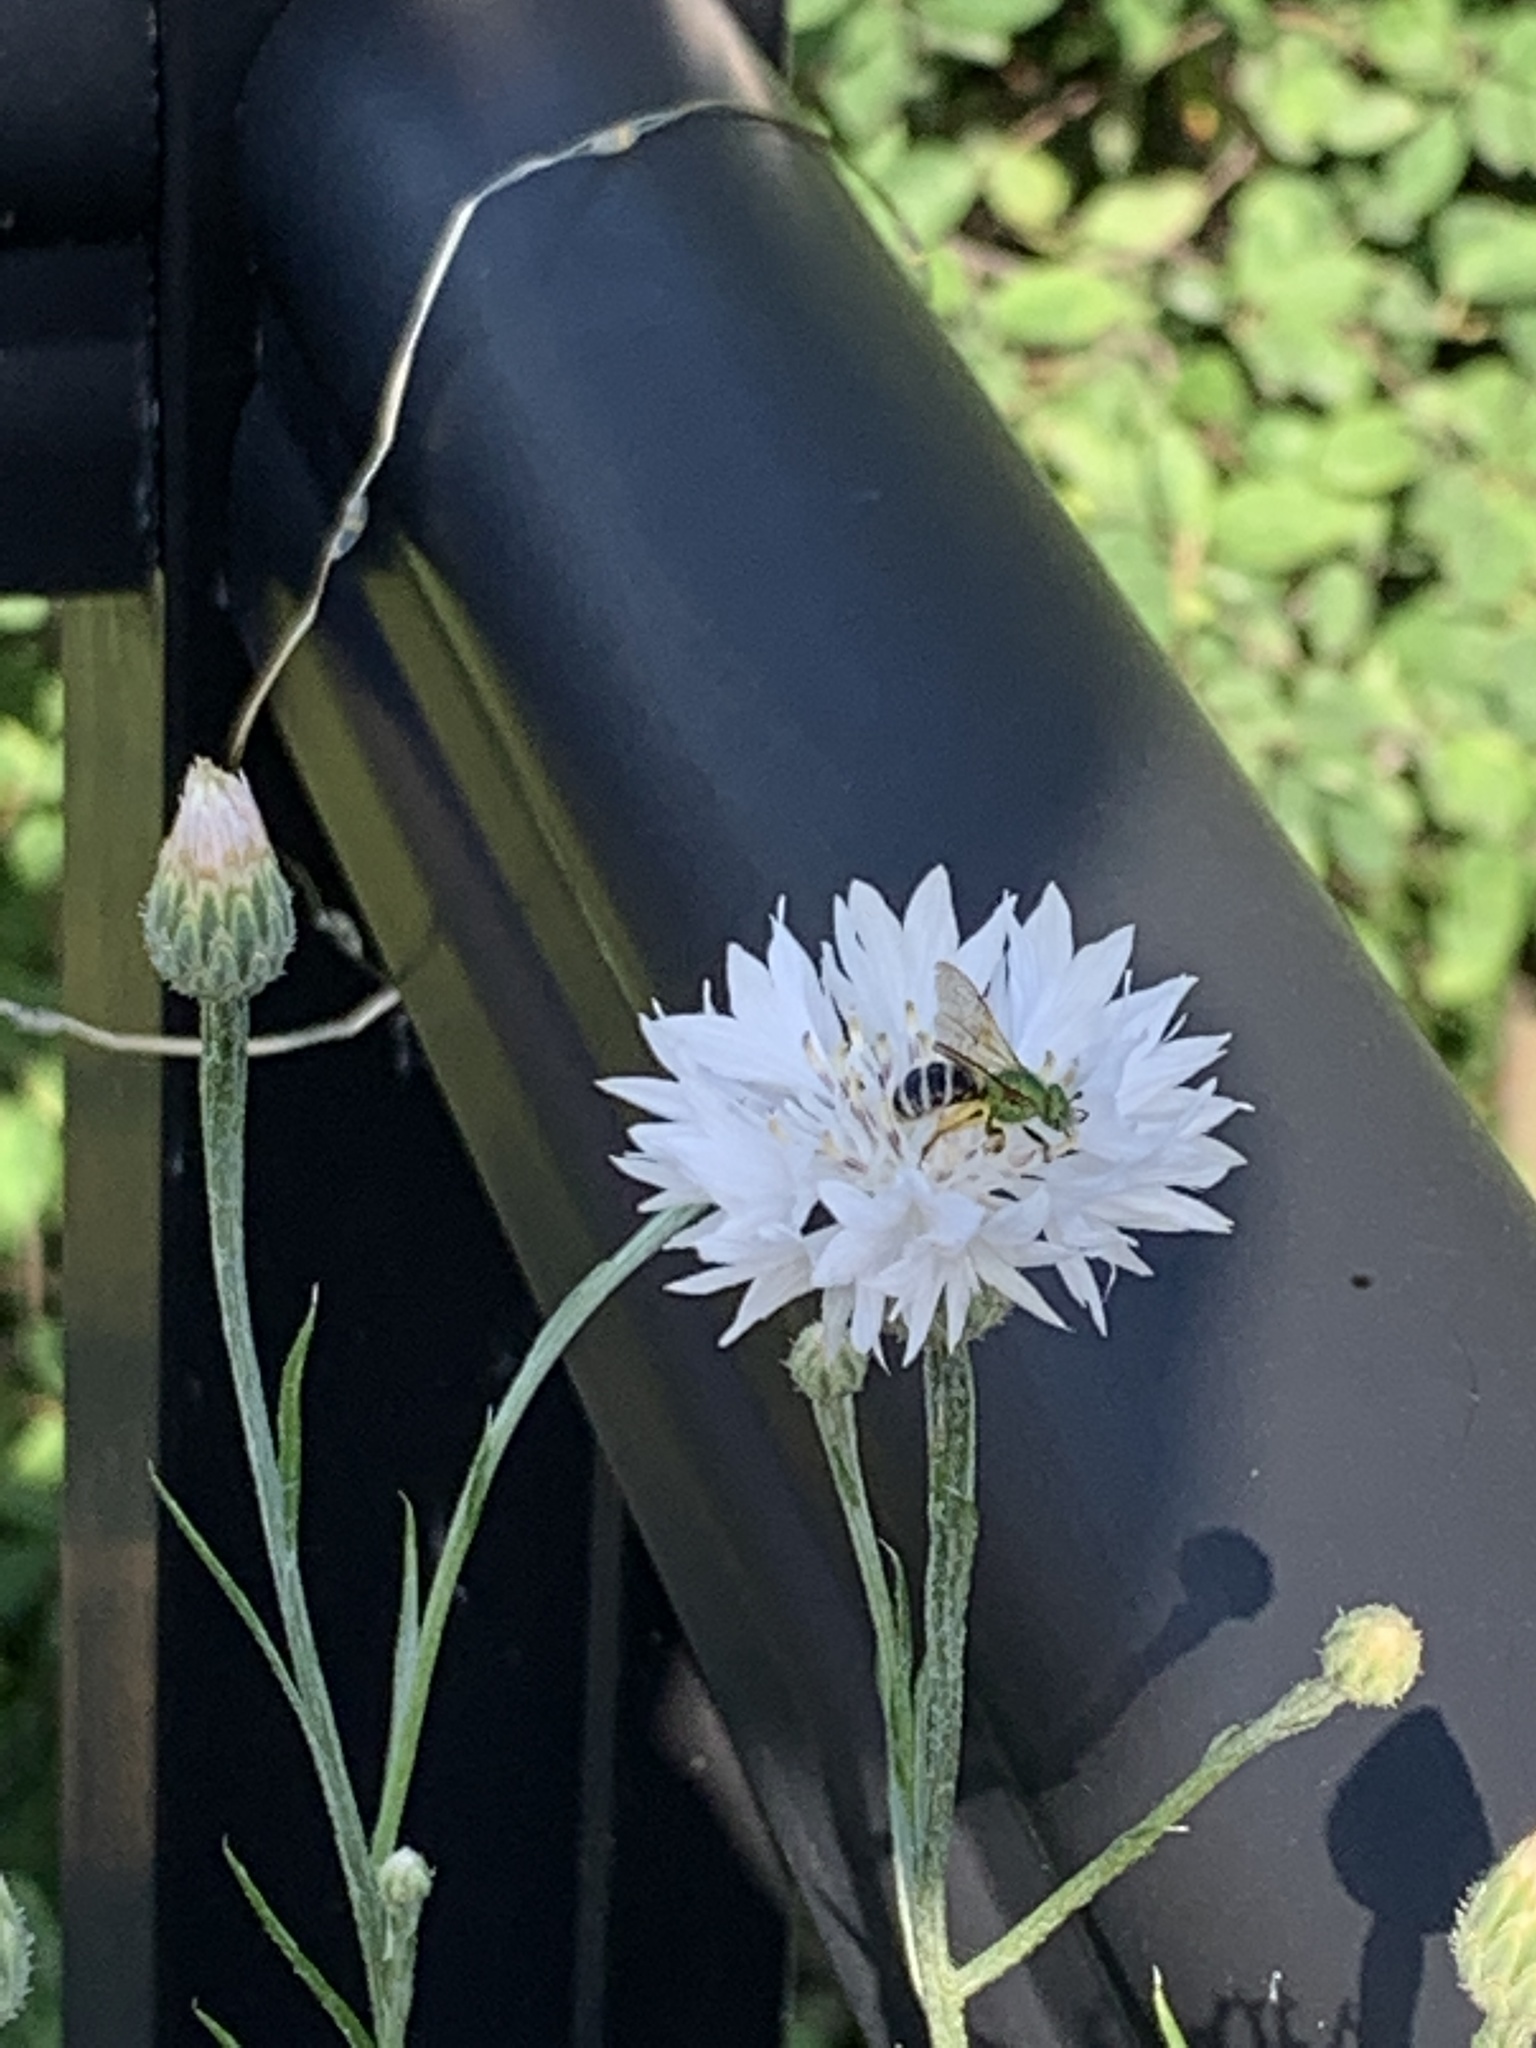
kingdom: Animalia
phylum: Arthropoda
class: Insecta
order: Hymenoptera
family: Halictidae
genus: Agapostemon
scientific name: Agapostemon virescens
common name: Bicolored striped sweat bee
